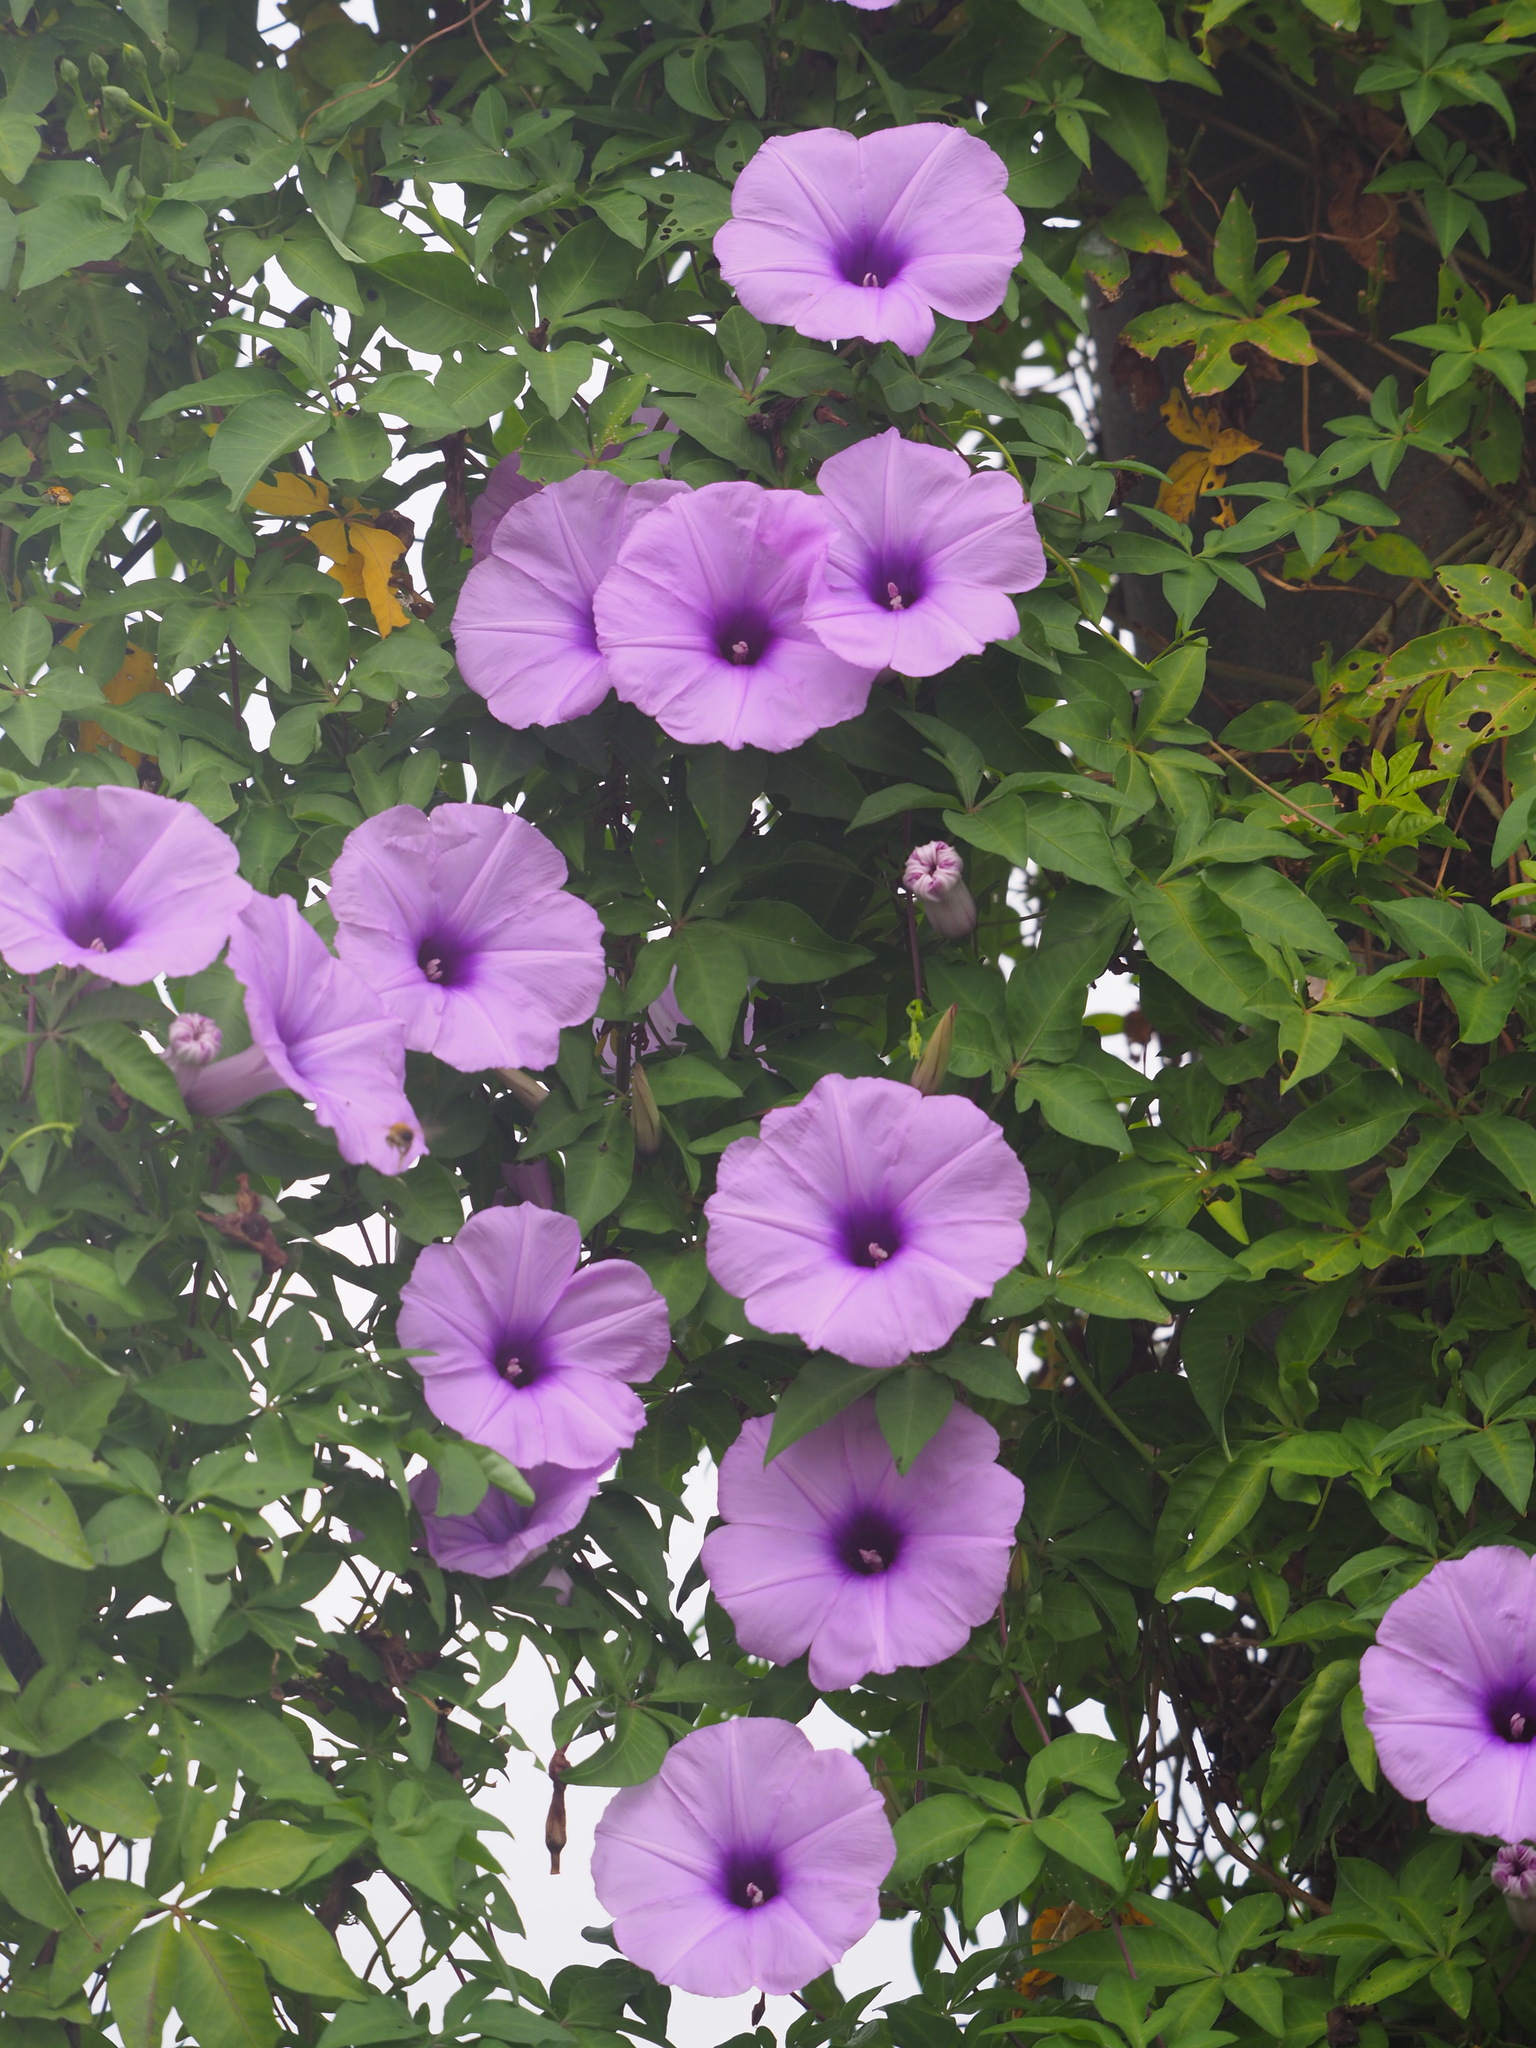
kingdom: Plantae
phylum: Tracheophyta
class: Magnoliopsida
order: Solanales
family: Convolvulaceae
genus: Ipomoea
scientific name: Ipomoea cairica
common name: Mile a minute vine
